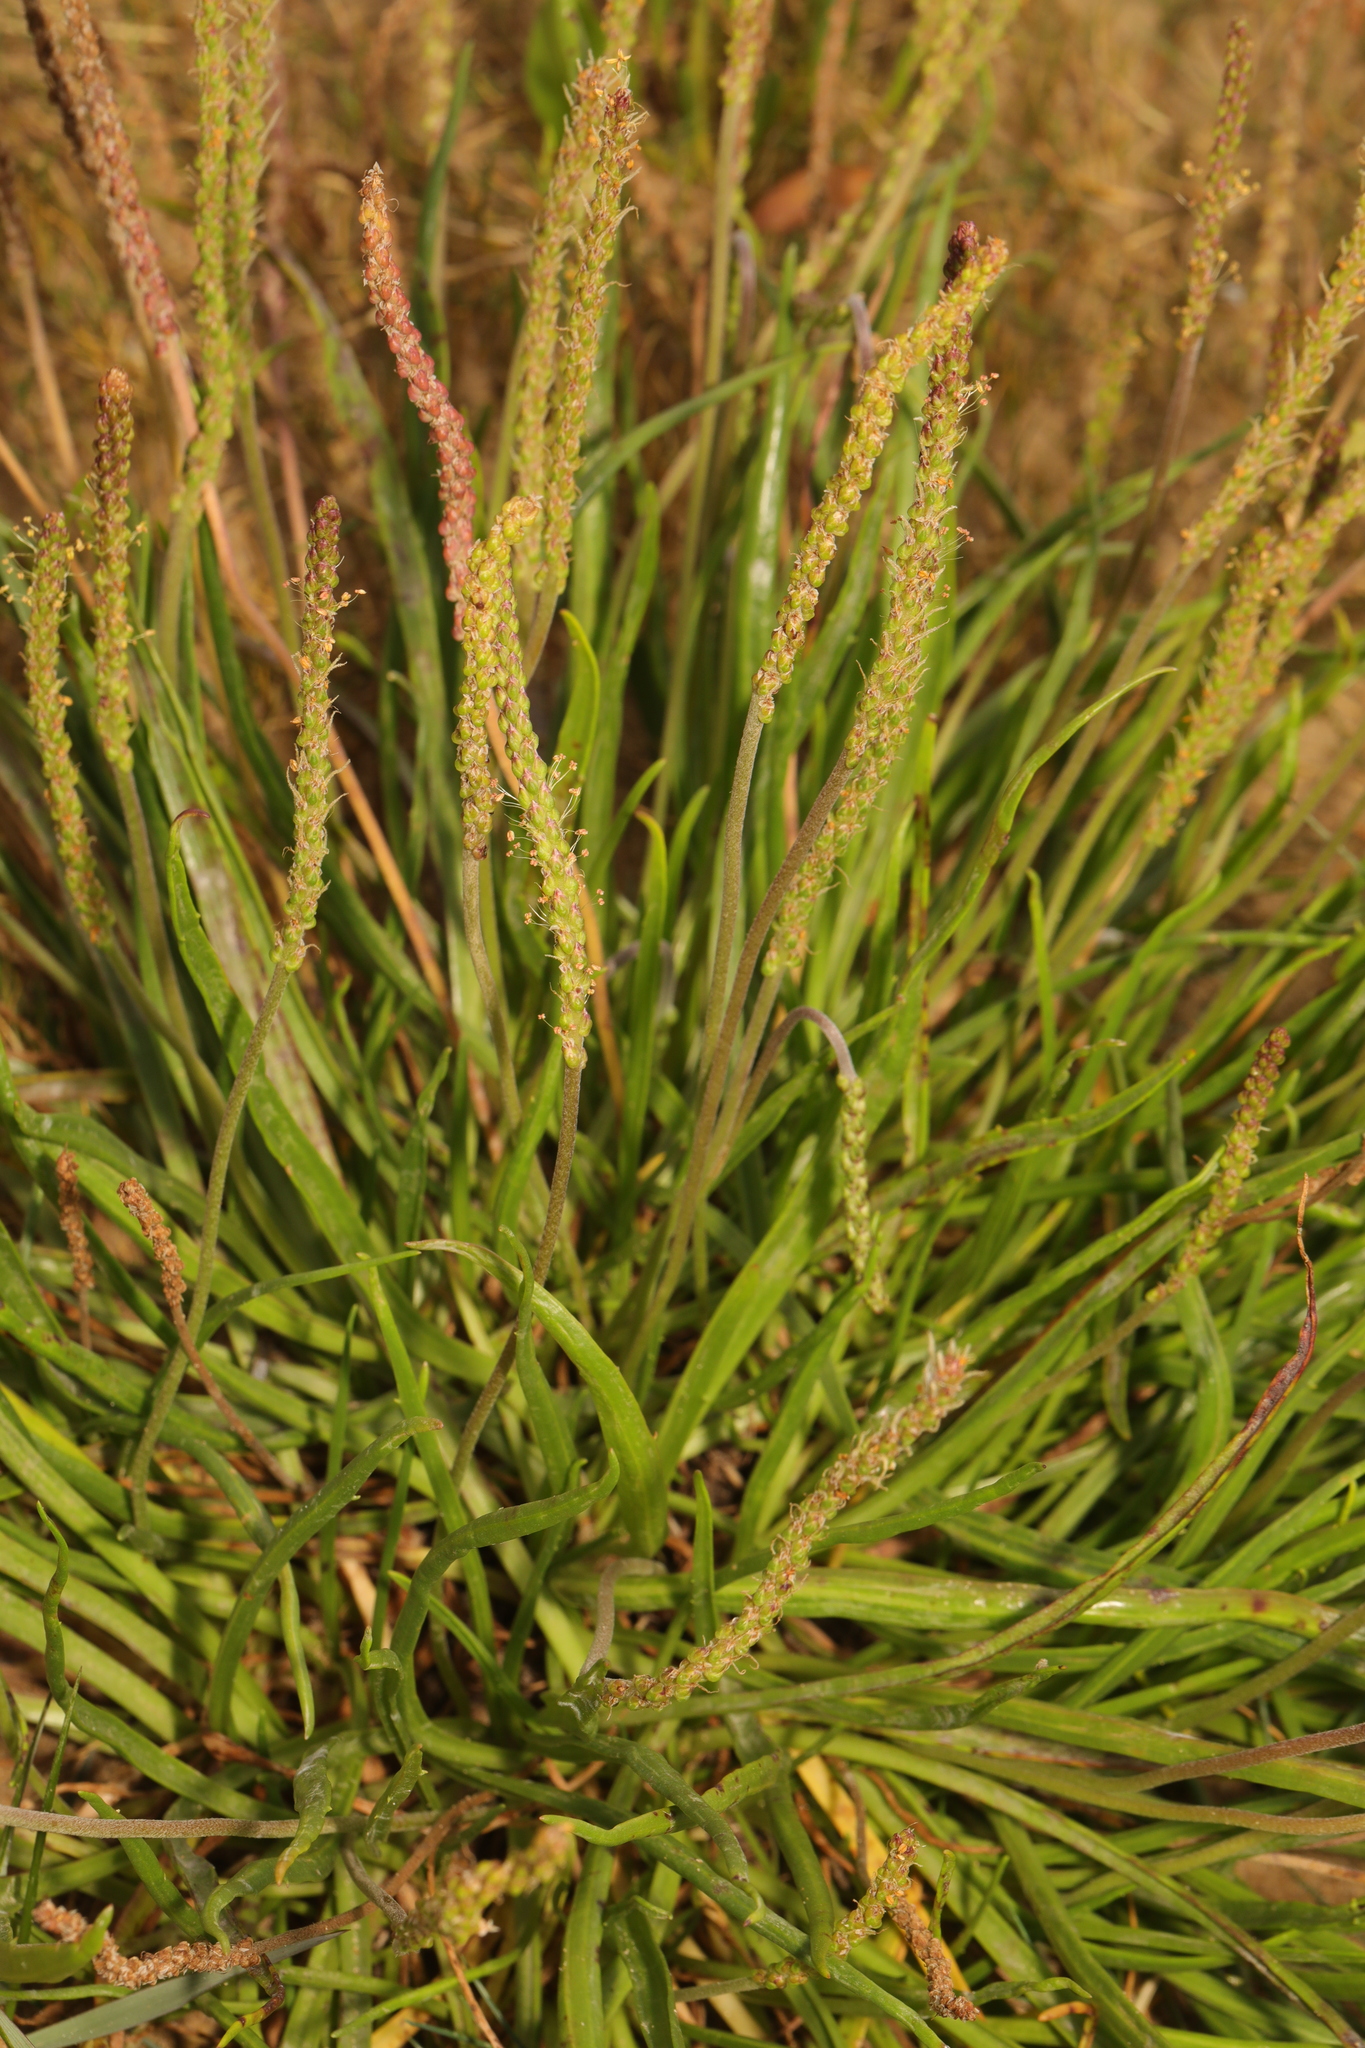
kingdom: Plantae
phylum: Tracheophyta
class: Magnoliopsida
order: Lamiales
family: Plantaginaceae
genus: Plantago
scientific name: Plantago maritima
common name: Sea plantain
